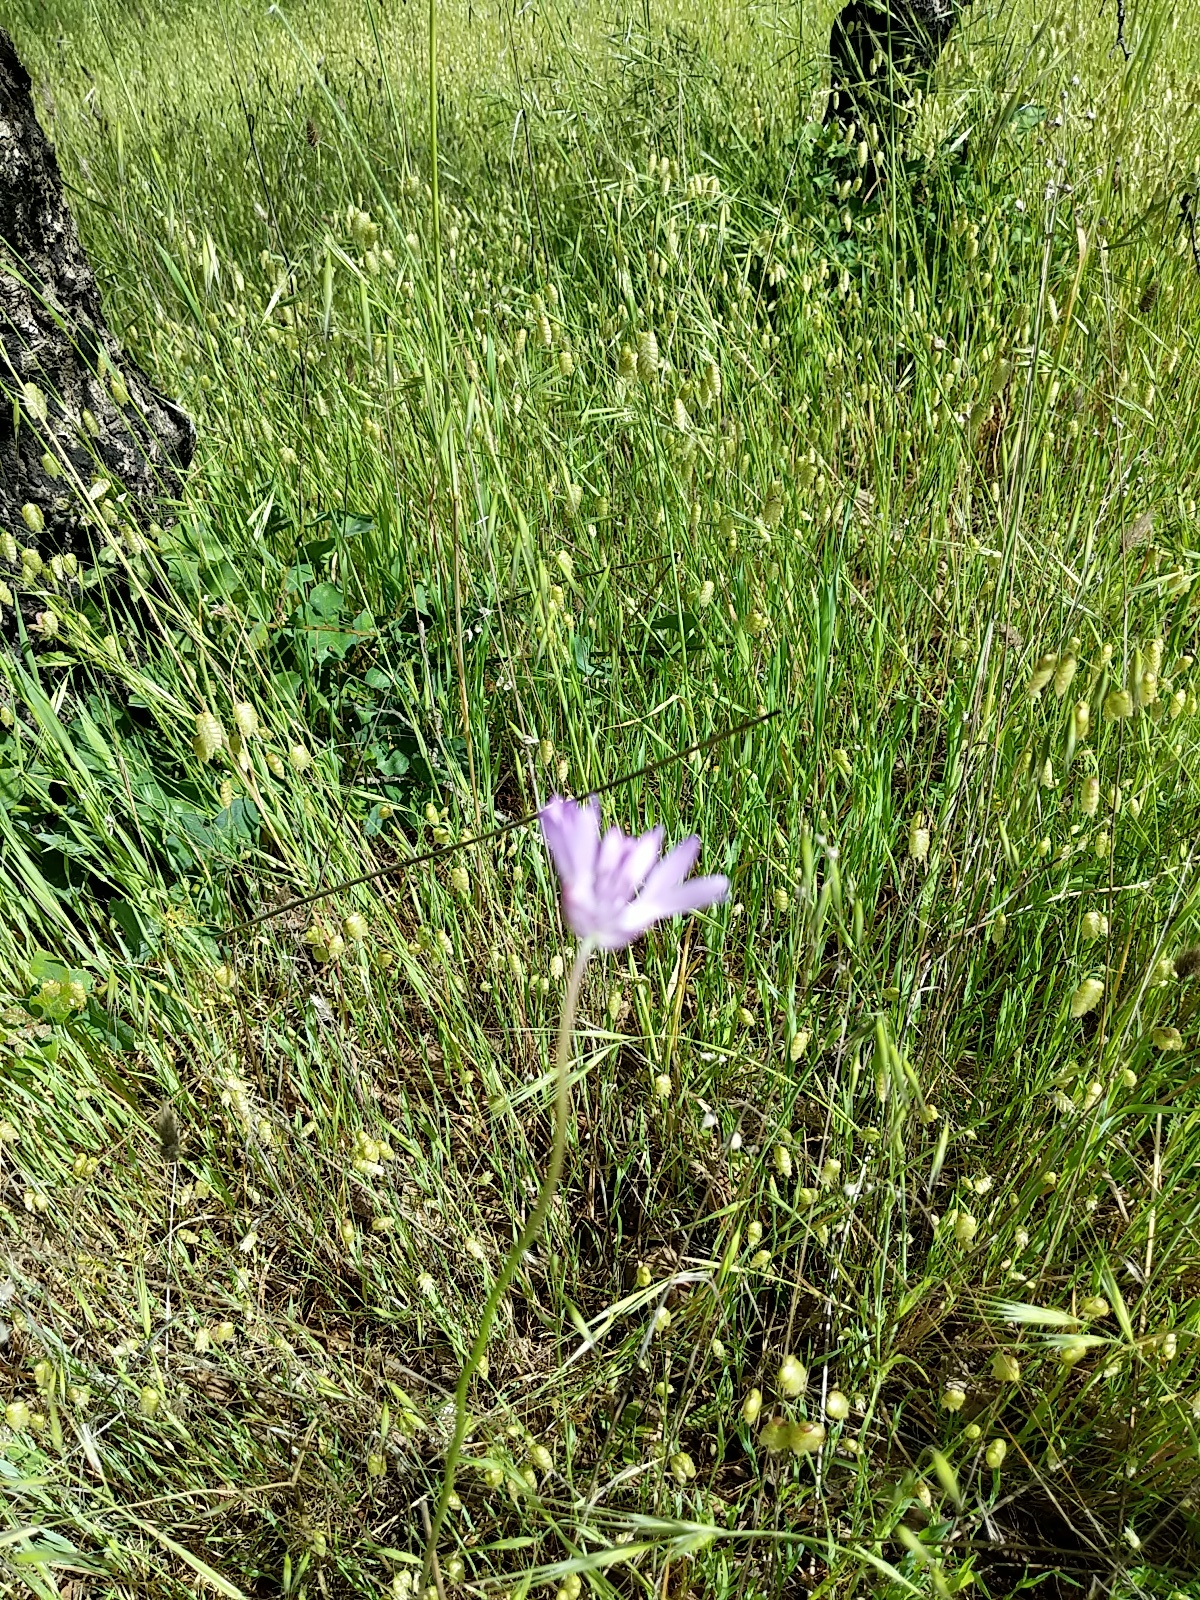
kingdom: Plantae
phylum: Tracheophyta
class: Liliopsida
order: Asparagales
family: Asparagaceae
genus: Dichelostemma
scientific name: Dichelostemma congestum
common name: Fork-tooth ookow
